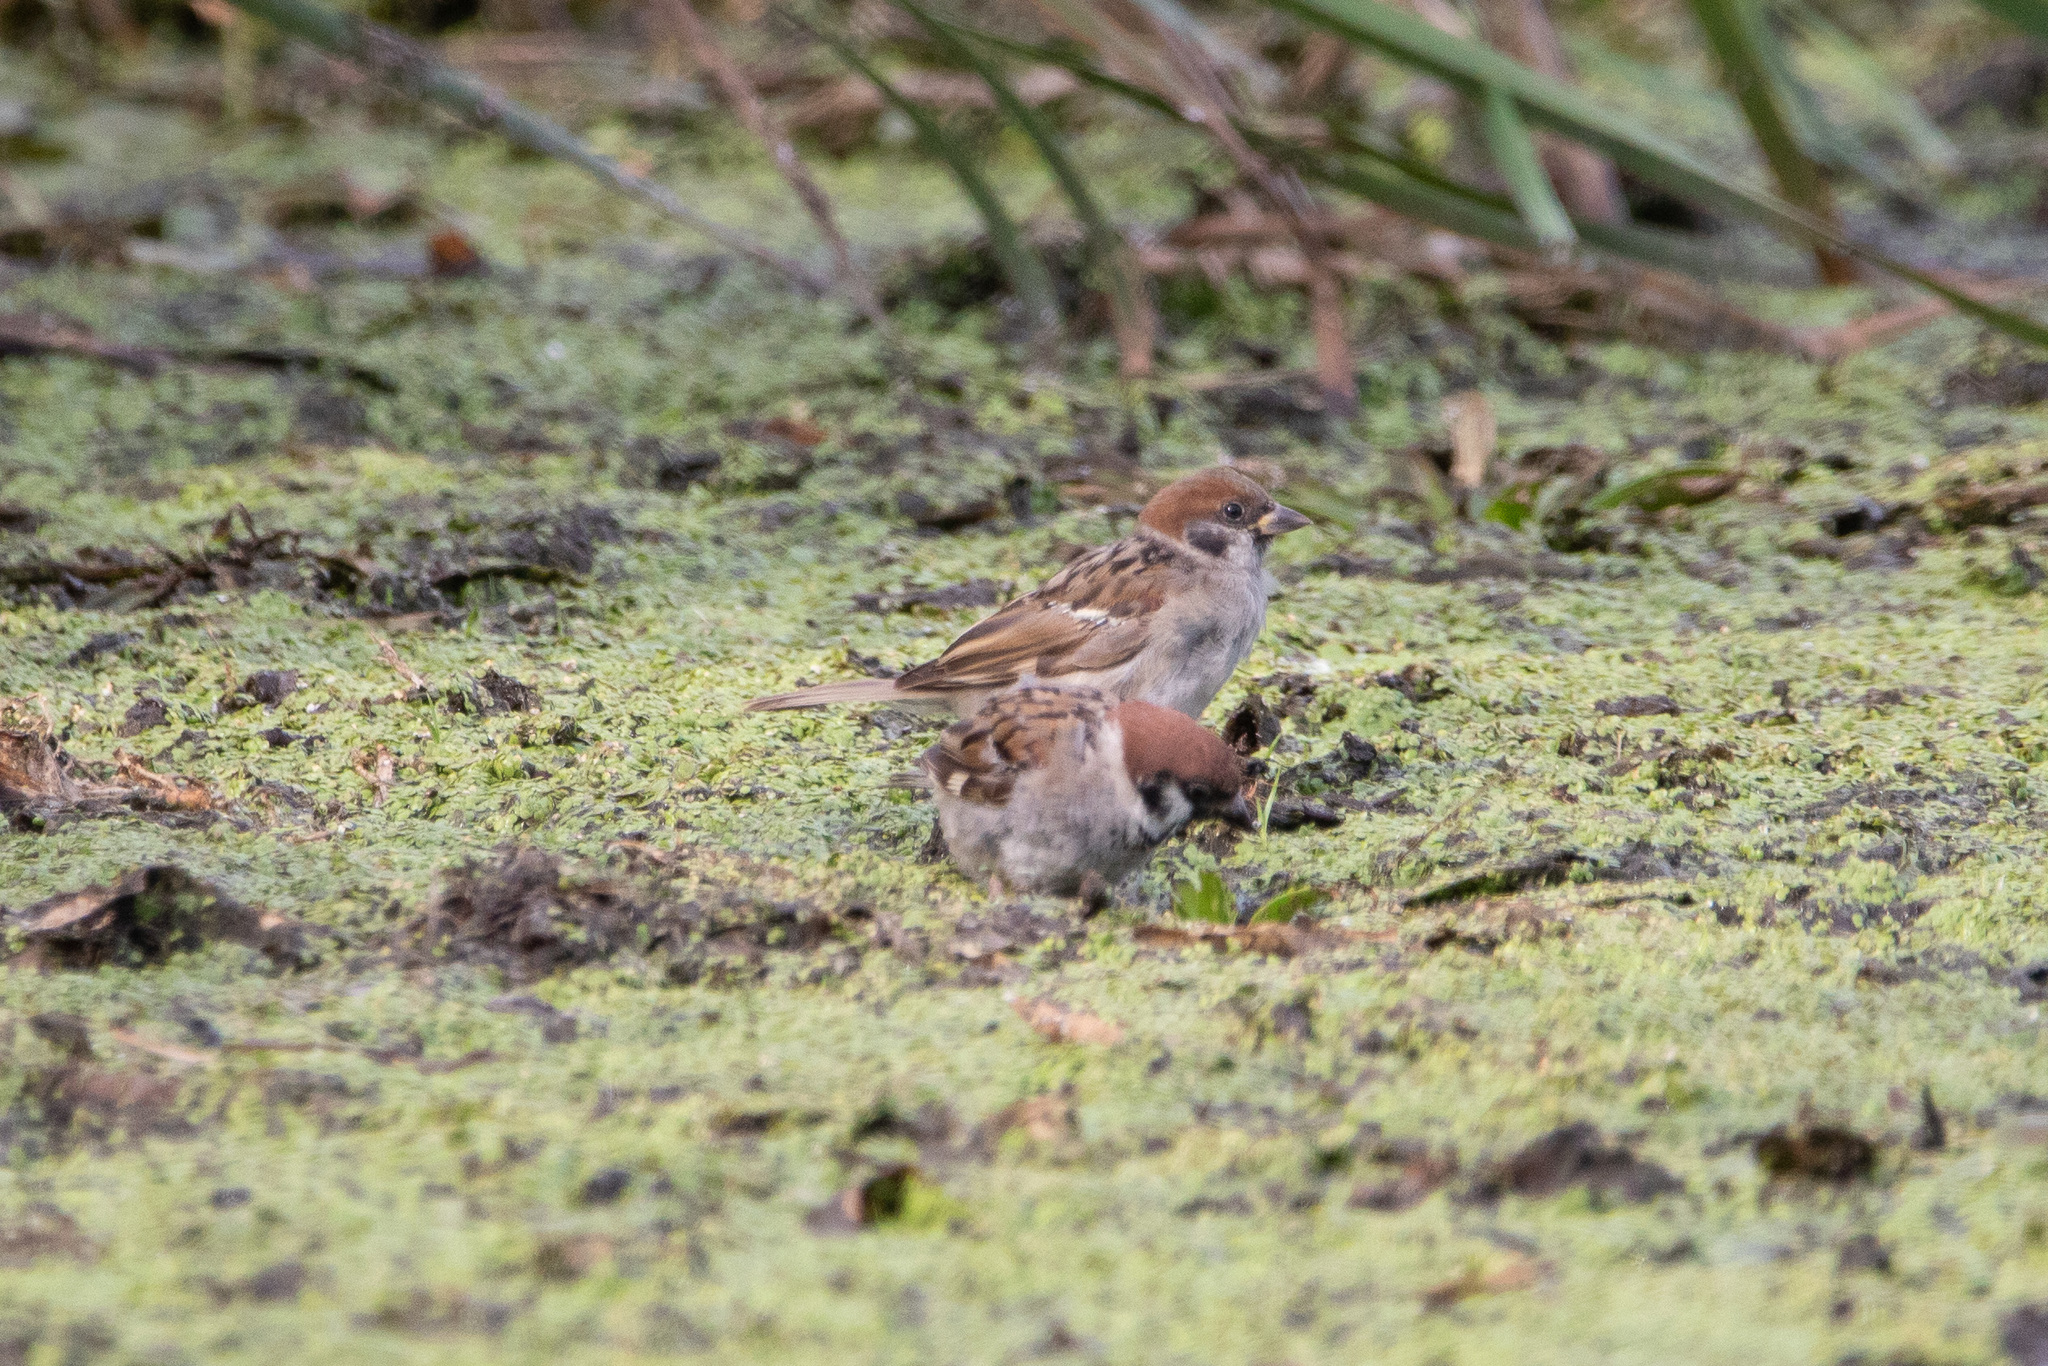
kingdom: Animalia
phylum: Chordata
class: Aves
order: Passeriformes
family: Passeridae
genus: Passer
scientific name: Passer montanus
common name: Eurasian tree sparrow
